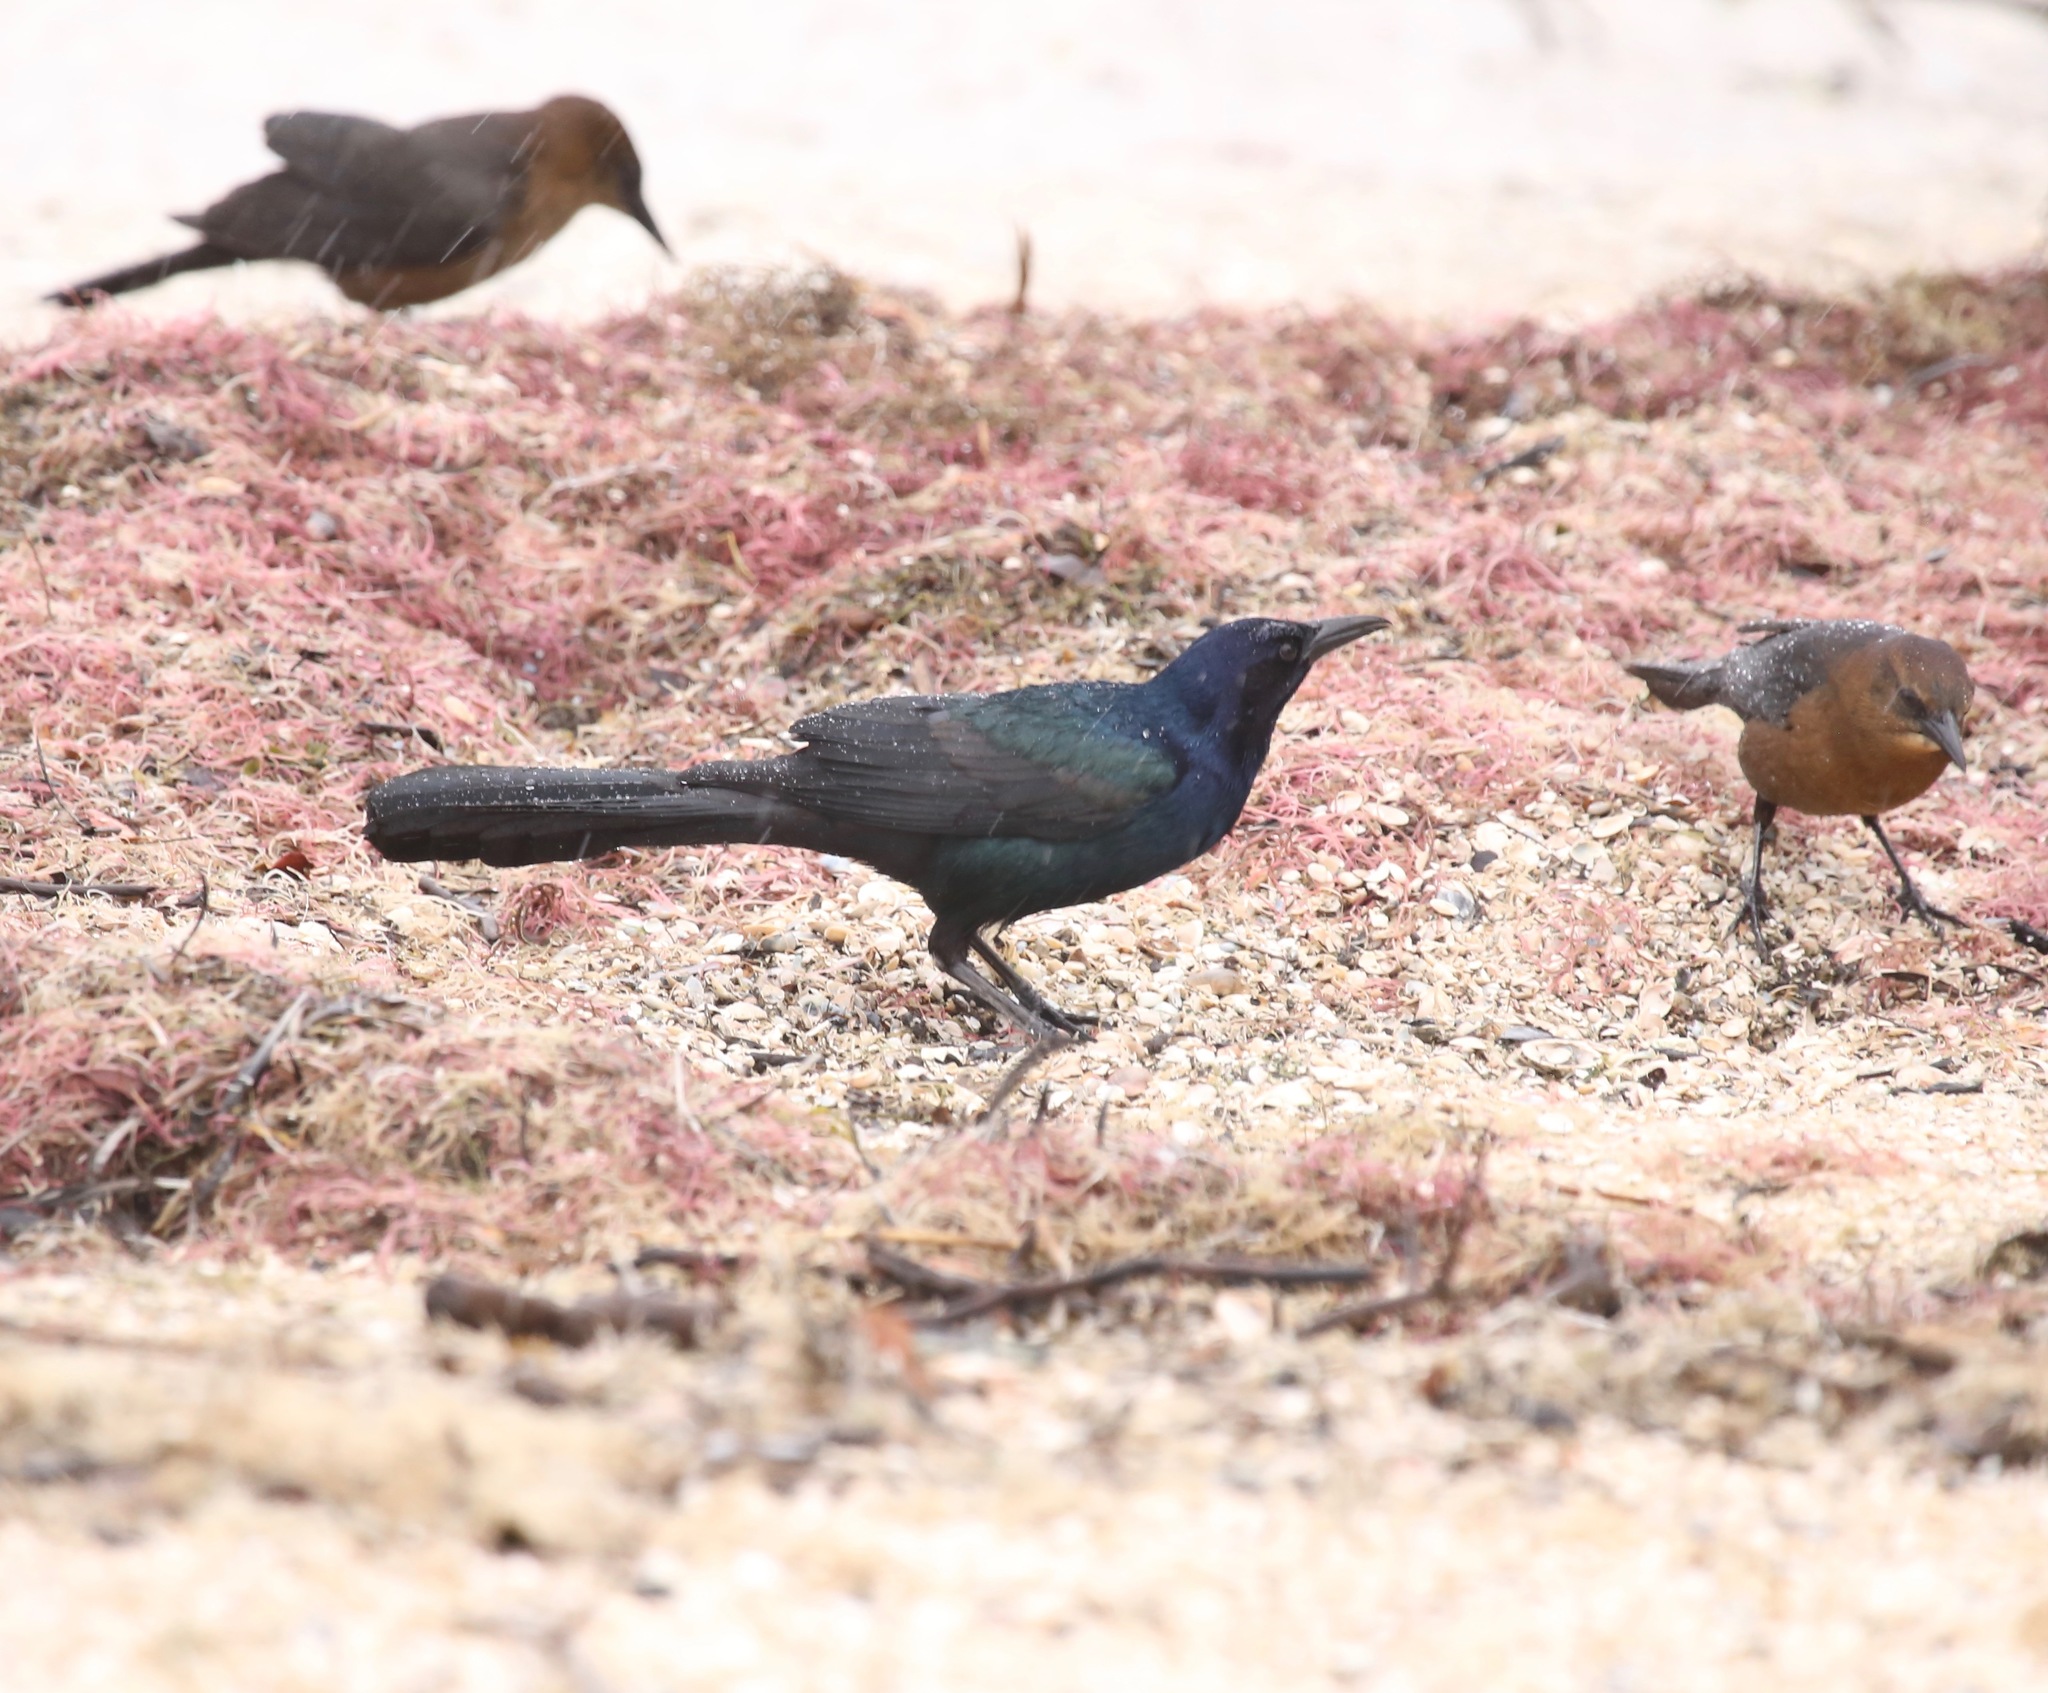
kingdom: Animalia
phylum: Chordata
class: Aves
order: Passeriformes
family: Icteridae
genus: Quiscalus
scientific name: Quiscalus major
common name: Boat-tailed grackle
